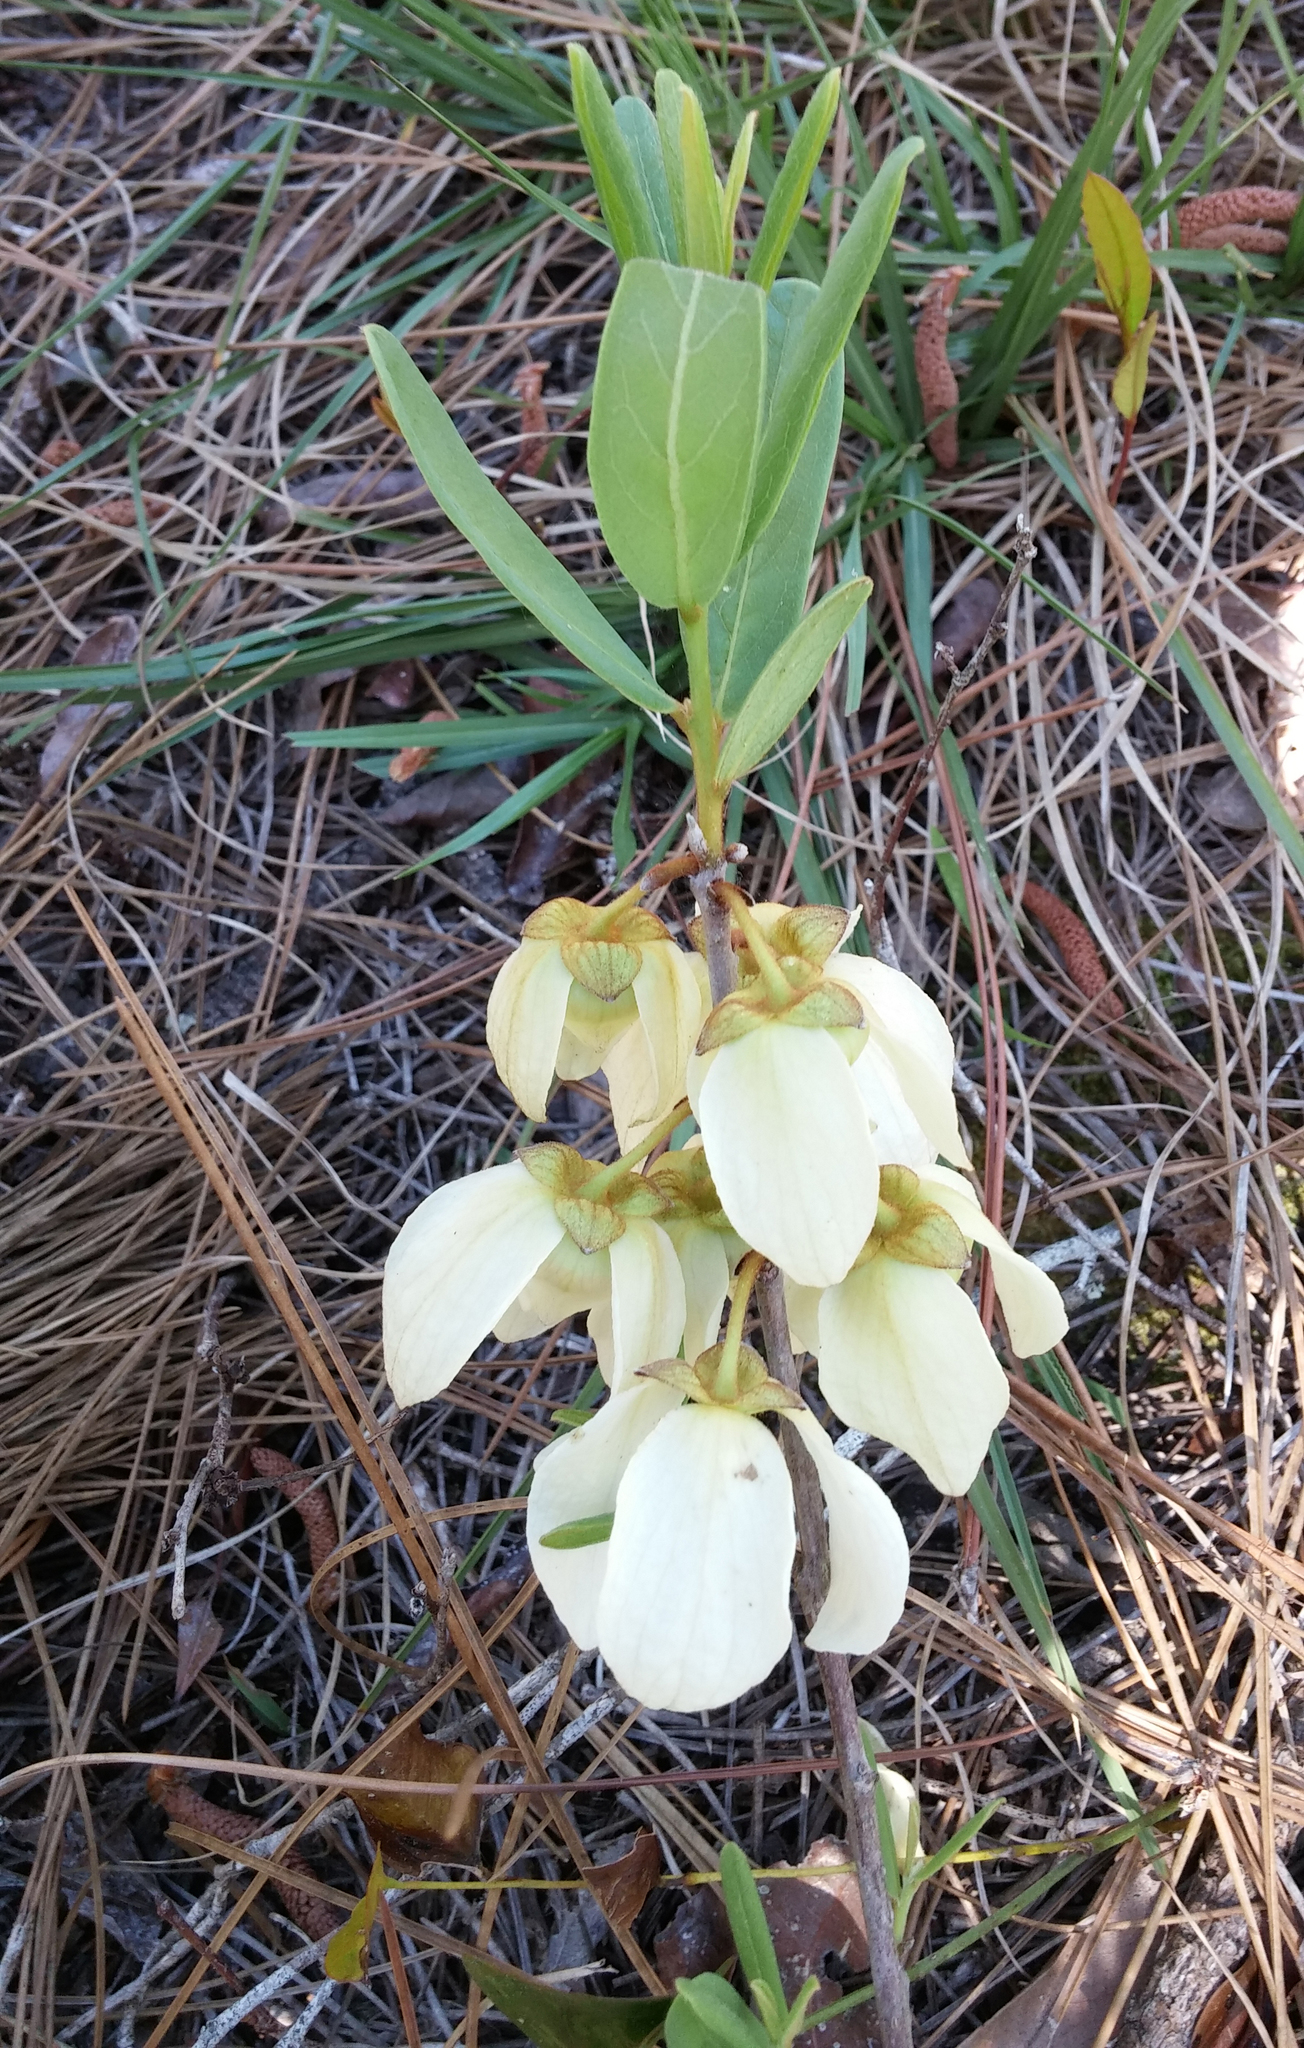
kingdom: Plantae
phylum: Tracheophyta
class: Magnoliopsida
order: Magnoliales
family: Annonaceae
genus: Asimina
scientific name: Asimina reticulata
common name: Flag pawpaw
